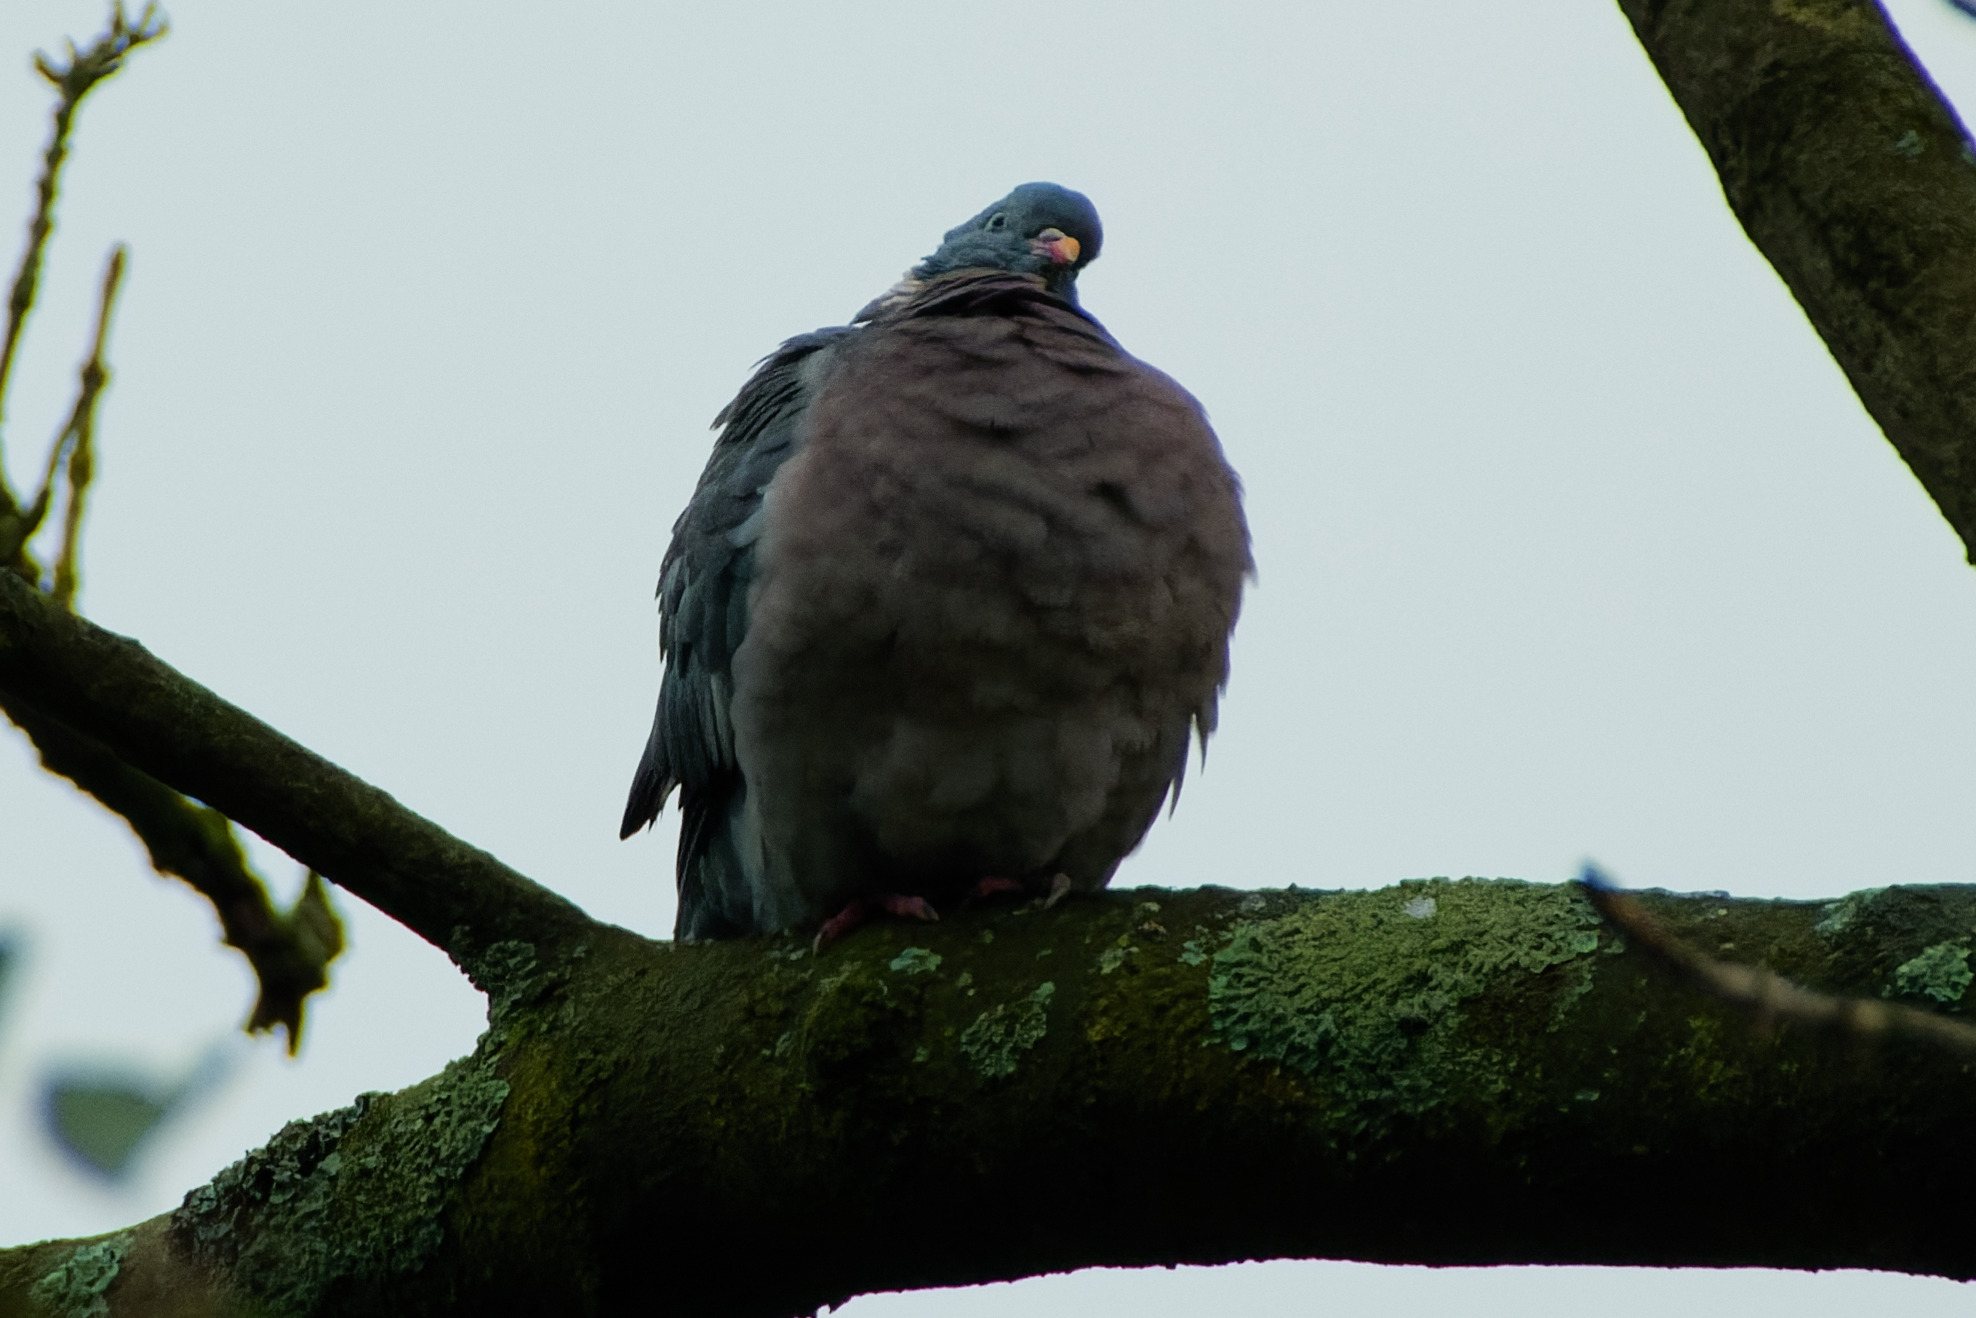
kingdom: Animalia
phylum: Chordata
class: Aves
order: Columbiformes
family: Columbidae
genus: Columba
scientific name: Columba palumbus
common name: Common wood pigeon
